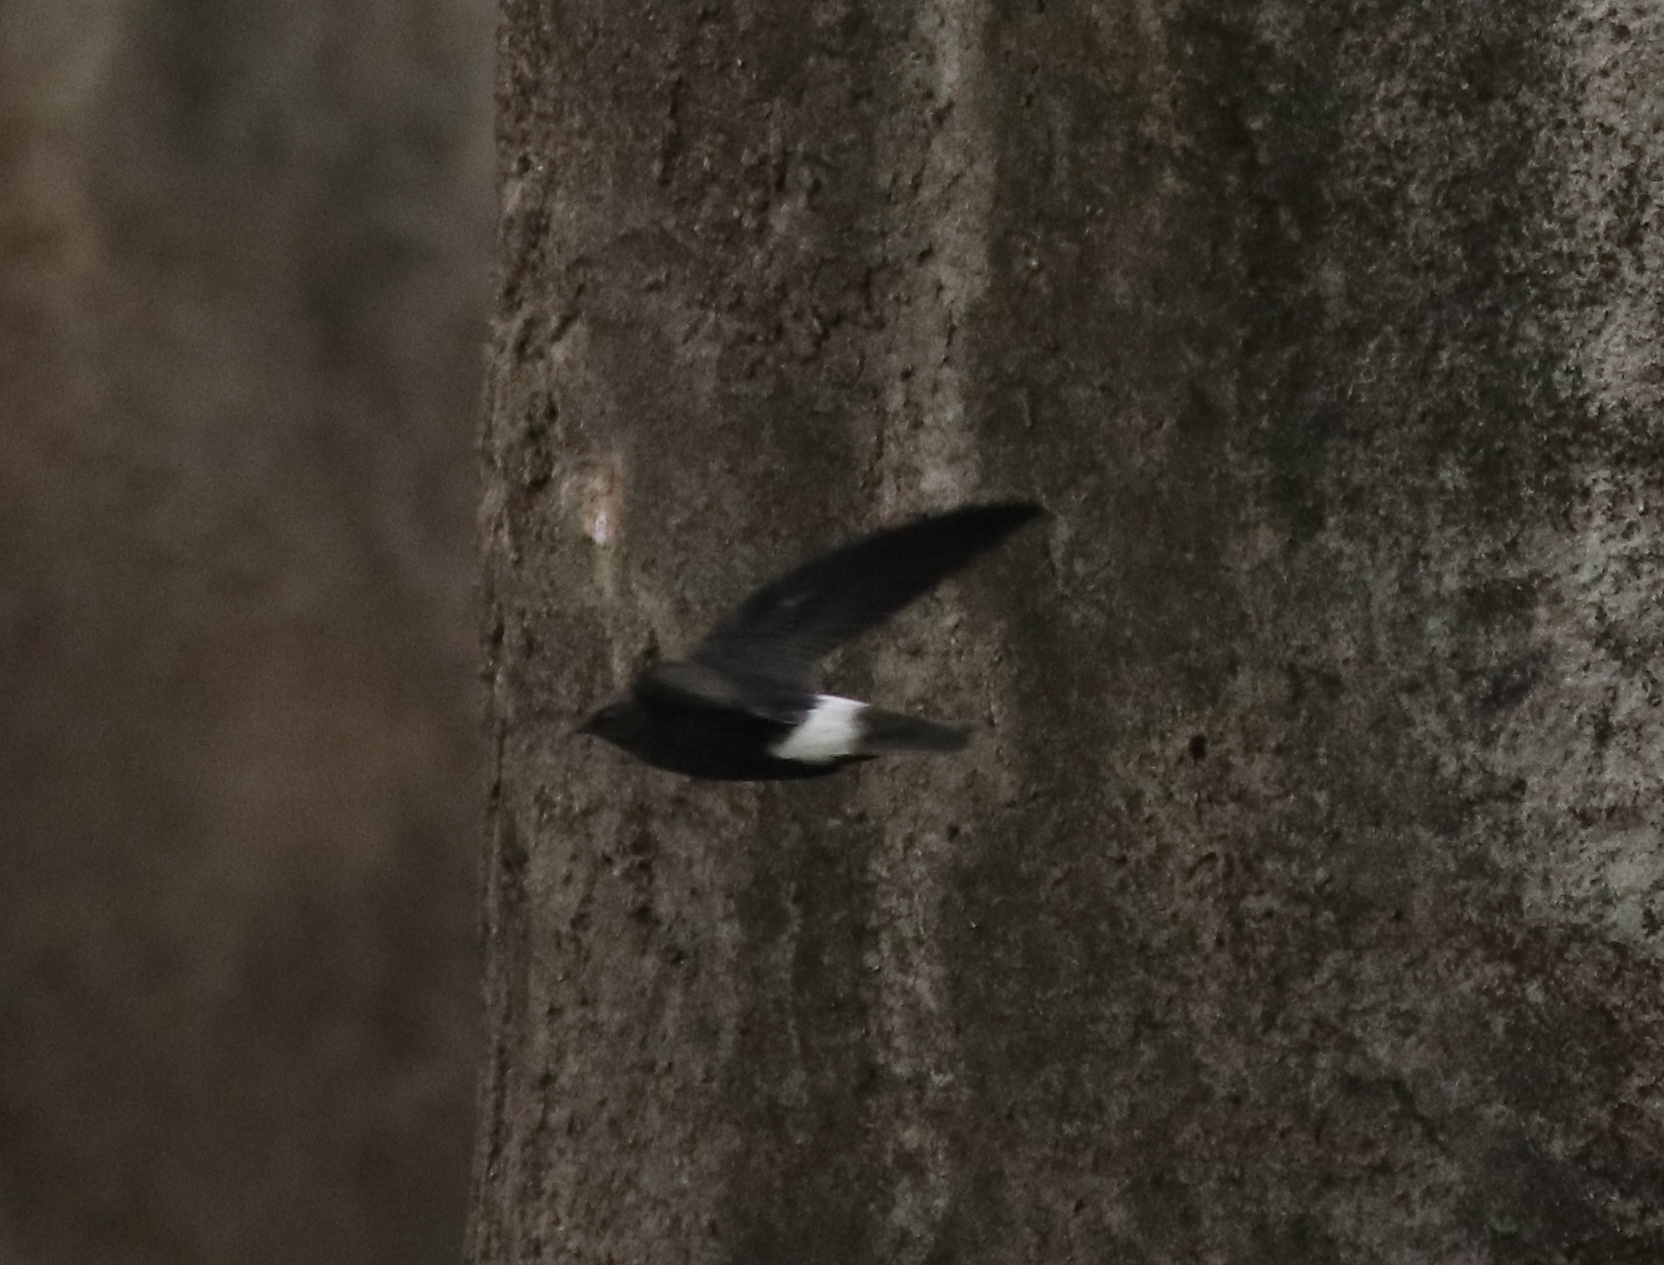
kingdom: Animalia
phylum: Chordata
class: Aves
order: Apodiformes
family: Apodidae
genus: Apus
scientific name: Apus affinis
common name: Little swift
